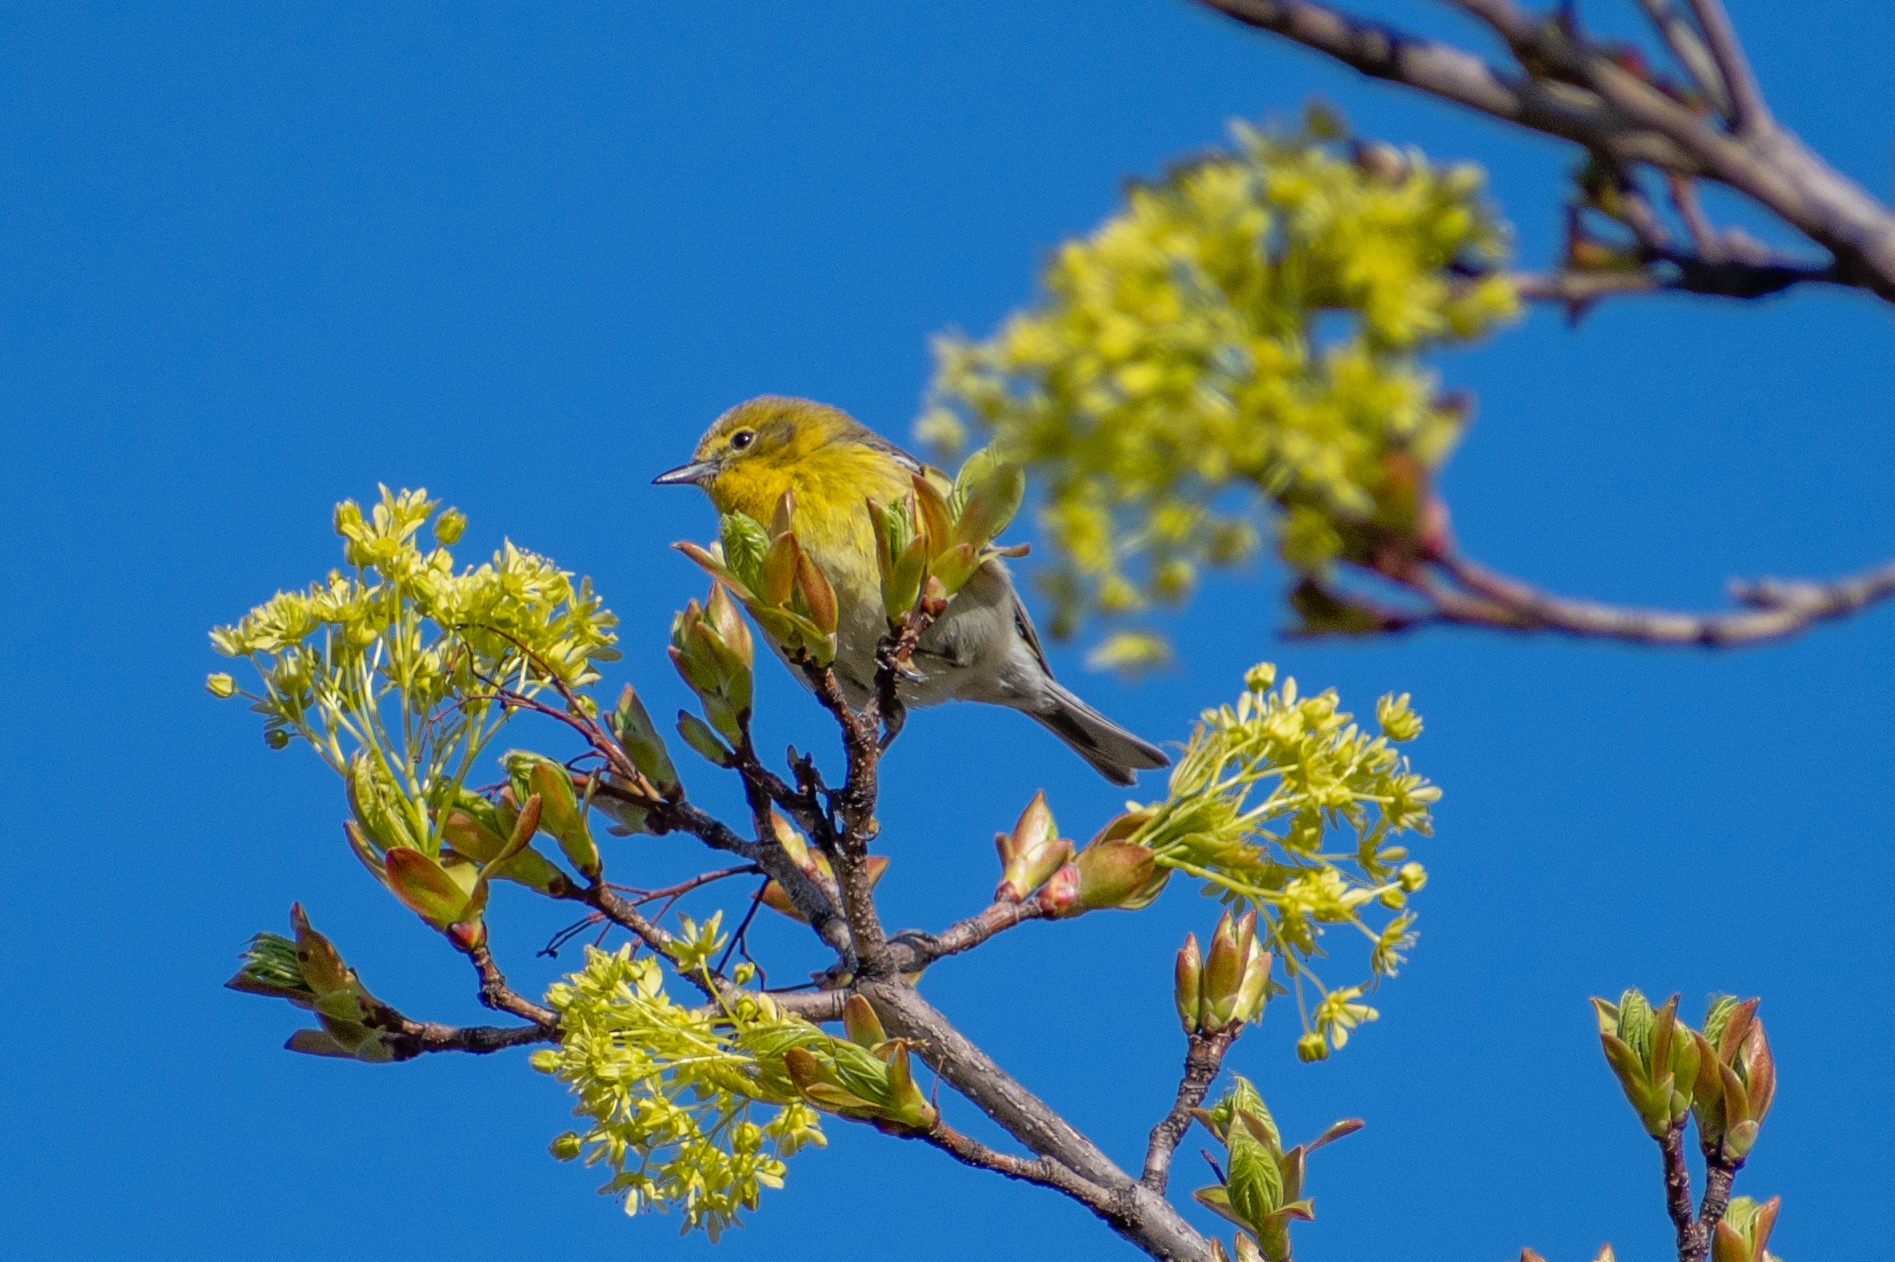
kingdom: Animalia
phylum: Chordata
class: Aves
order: Passeriformes
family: Parulidae
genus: Setophaga
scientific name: Setophaga pinus
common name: Pine warbler
